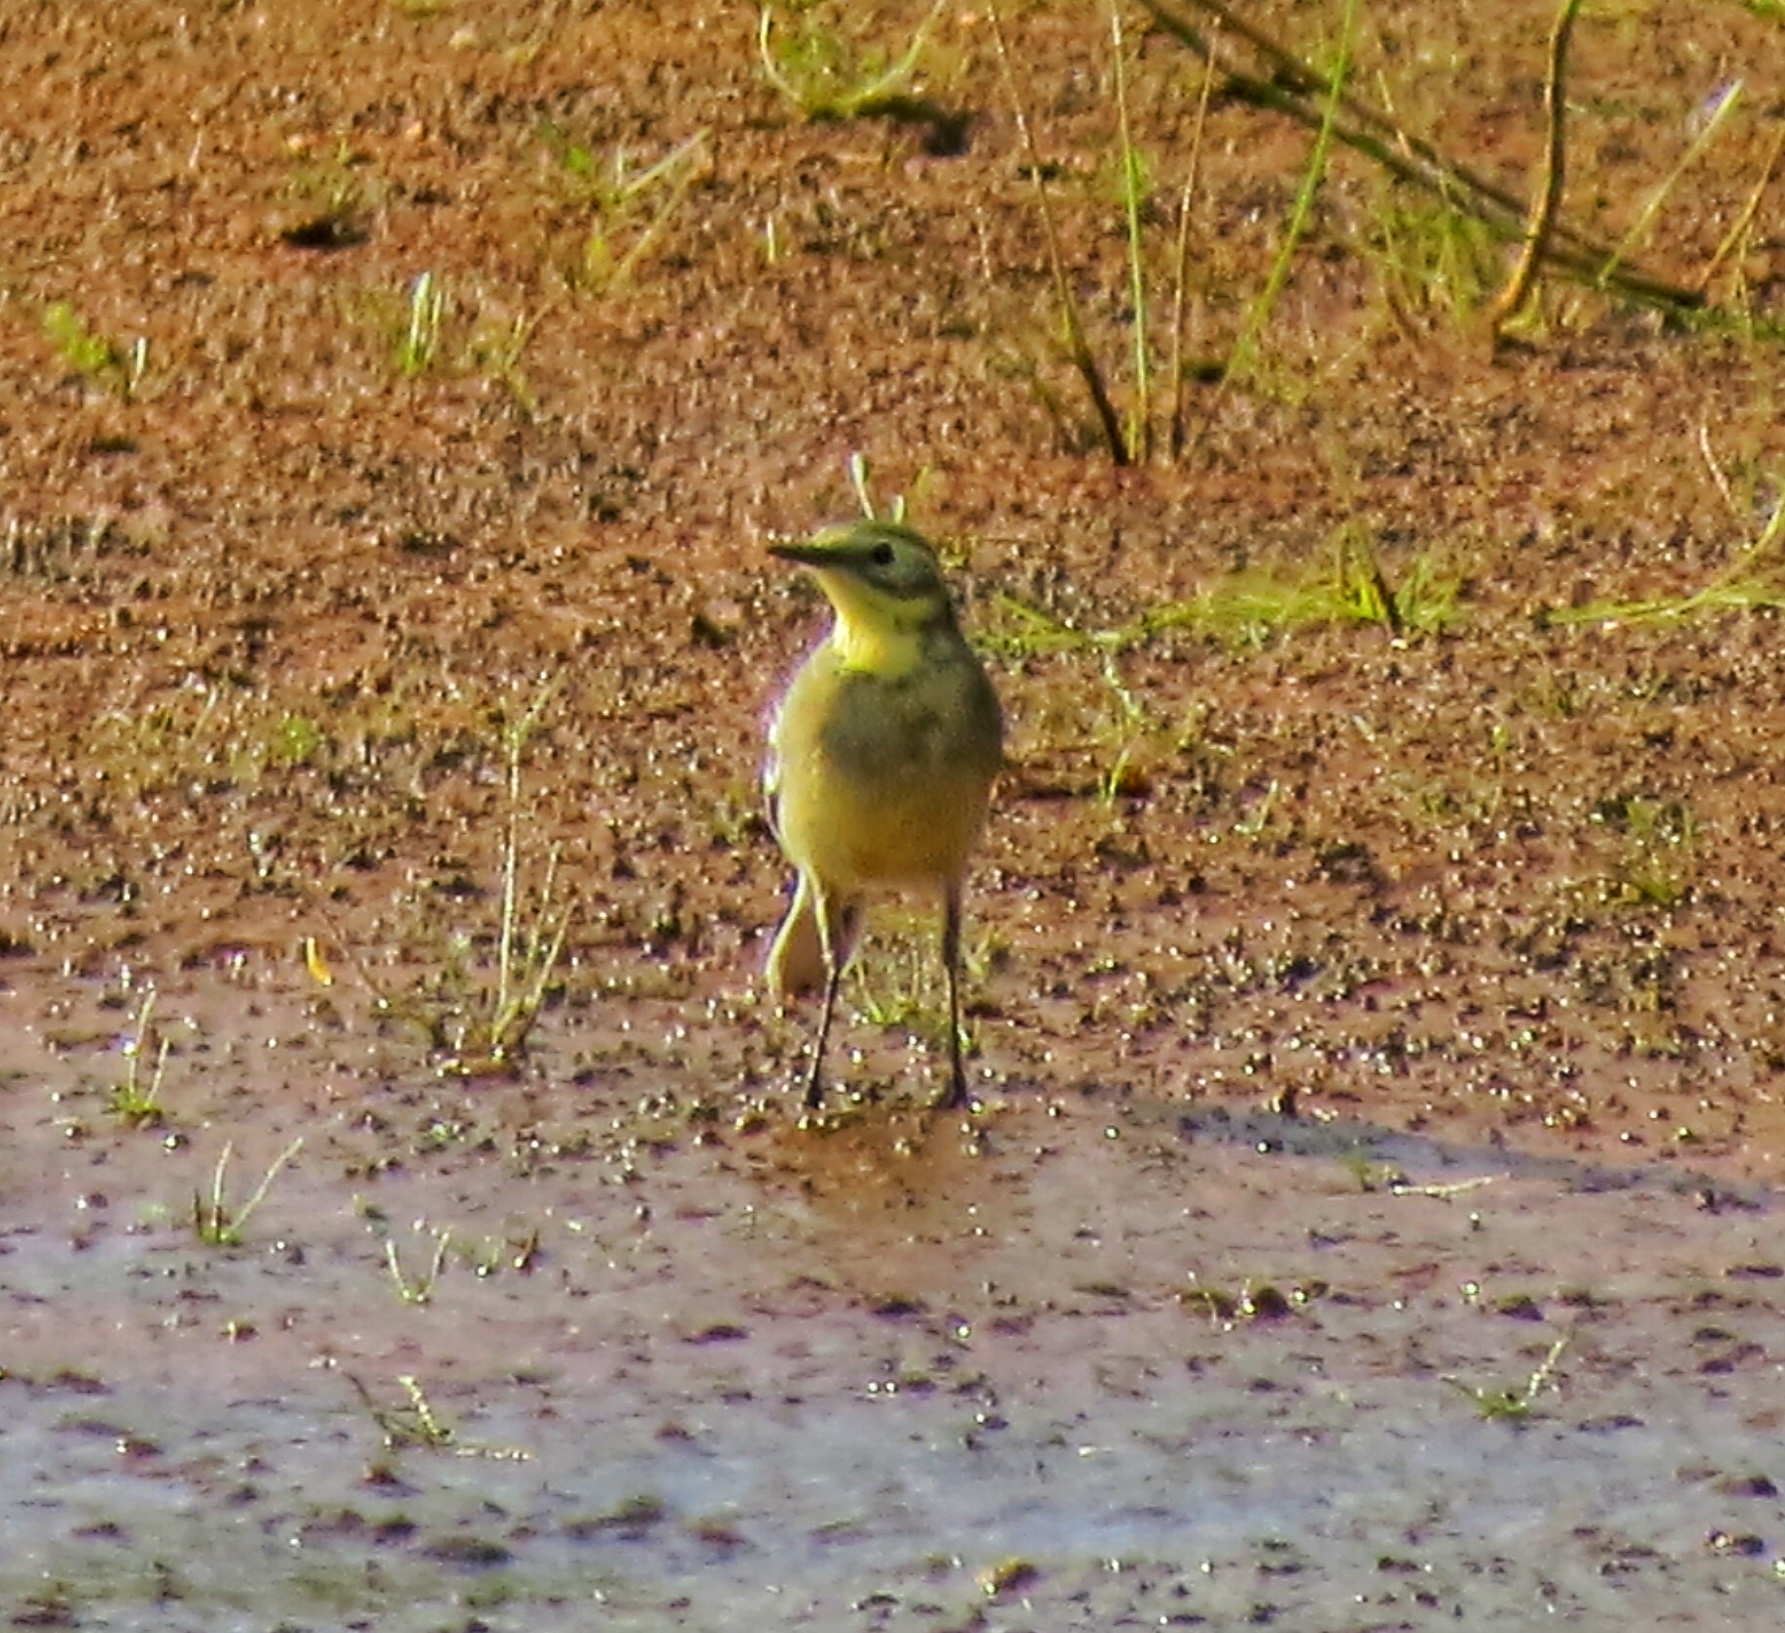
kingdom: Animalia
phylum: Chordata
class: Aves
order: Passeriformes
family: Motacillidae
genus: Motacilla
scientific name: Motacilla citreola
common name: Citrine wagtail
